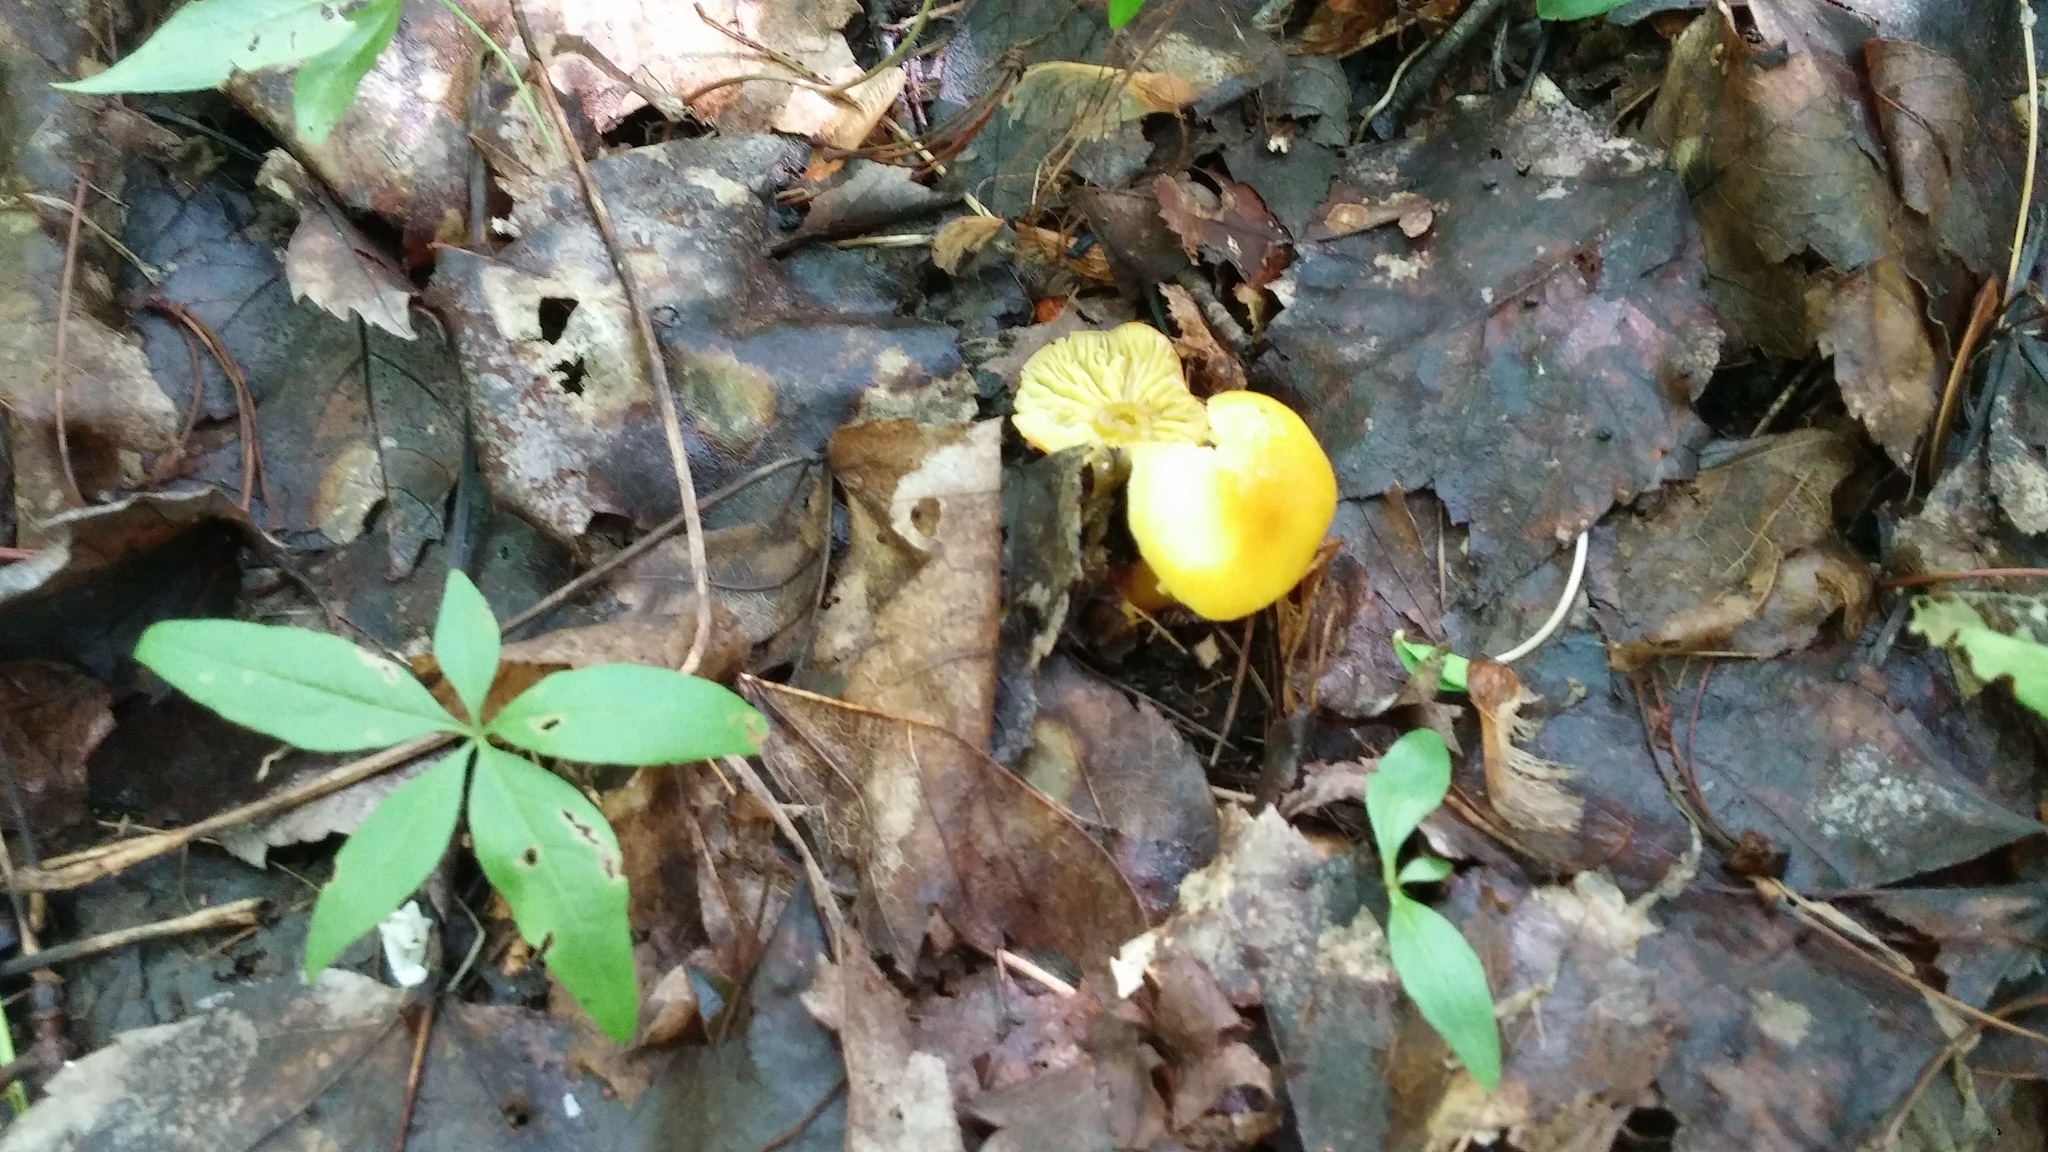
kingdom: Fungi
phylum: Basidiomycota
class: Agaricomycetes
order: Agaricales
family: Hygrophoraceae
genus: Hygrocybe
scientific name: Hygrocybe flavescens
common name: Golden waxy cap
